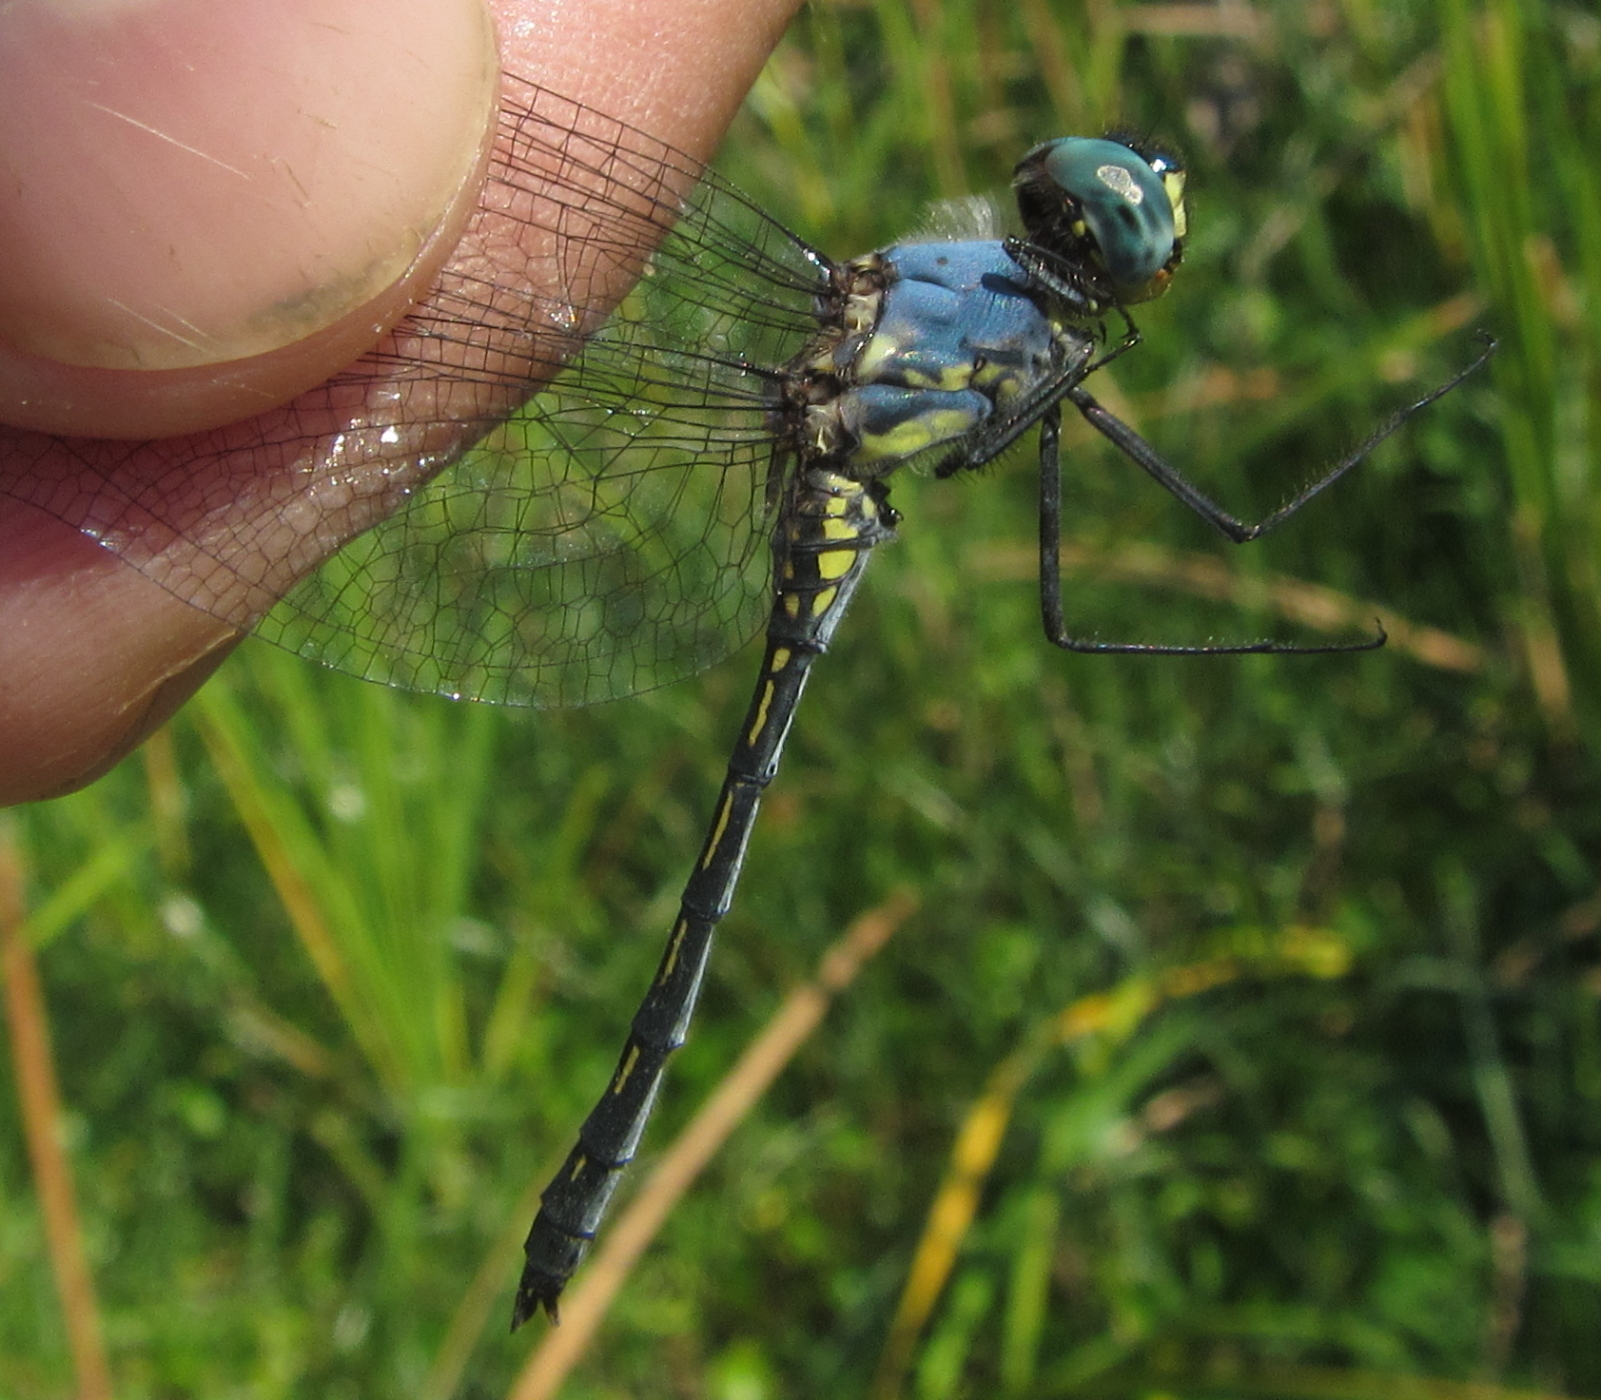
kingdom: Animalia
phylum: Arthropoda
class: Insecta
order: Odonata
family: Libellulidae
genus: Trithemis
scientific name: Trithemis stictica
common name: Jaunty dropwing
